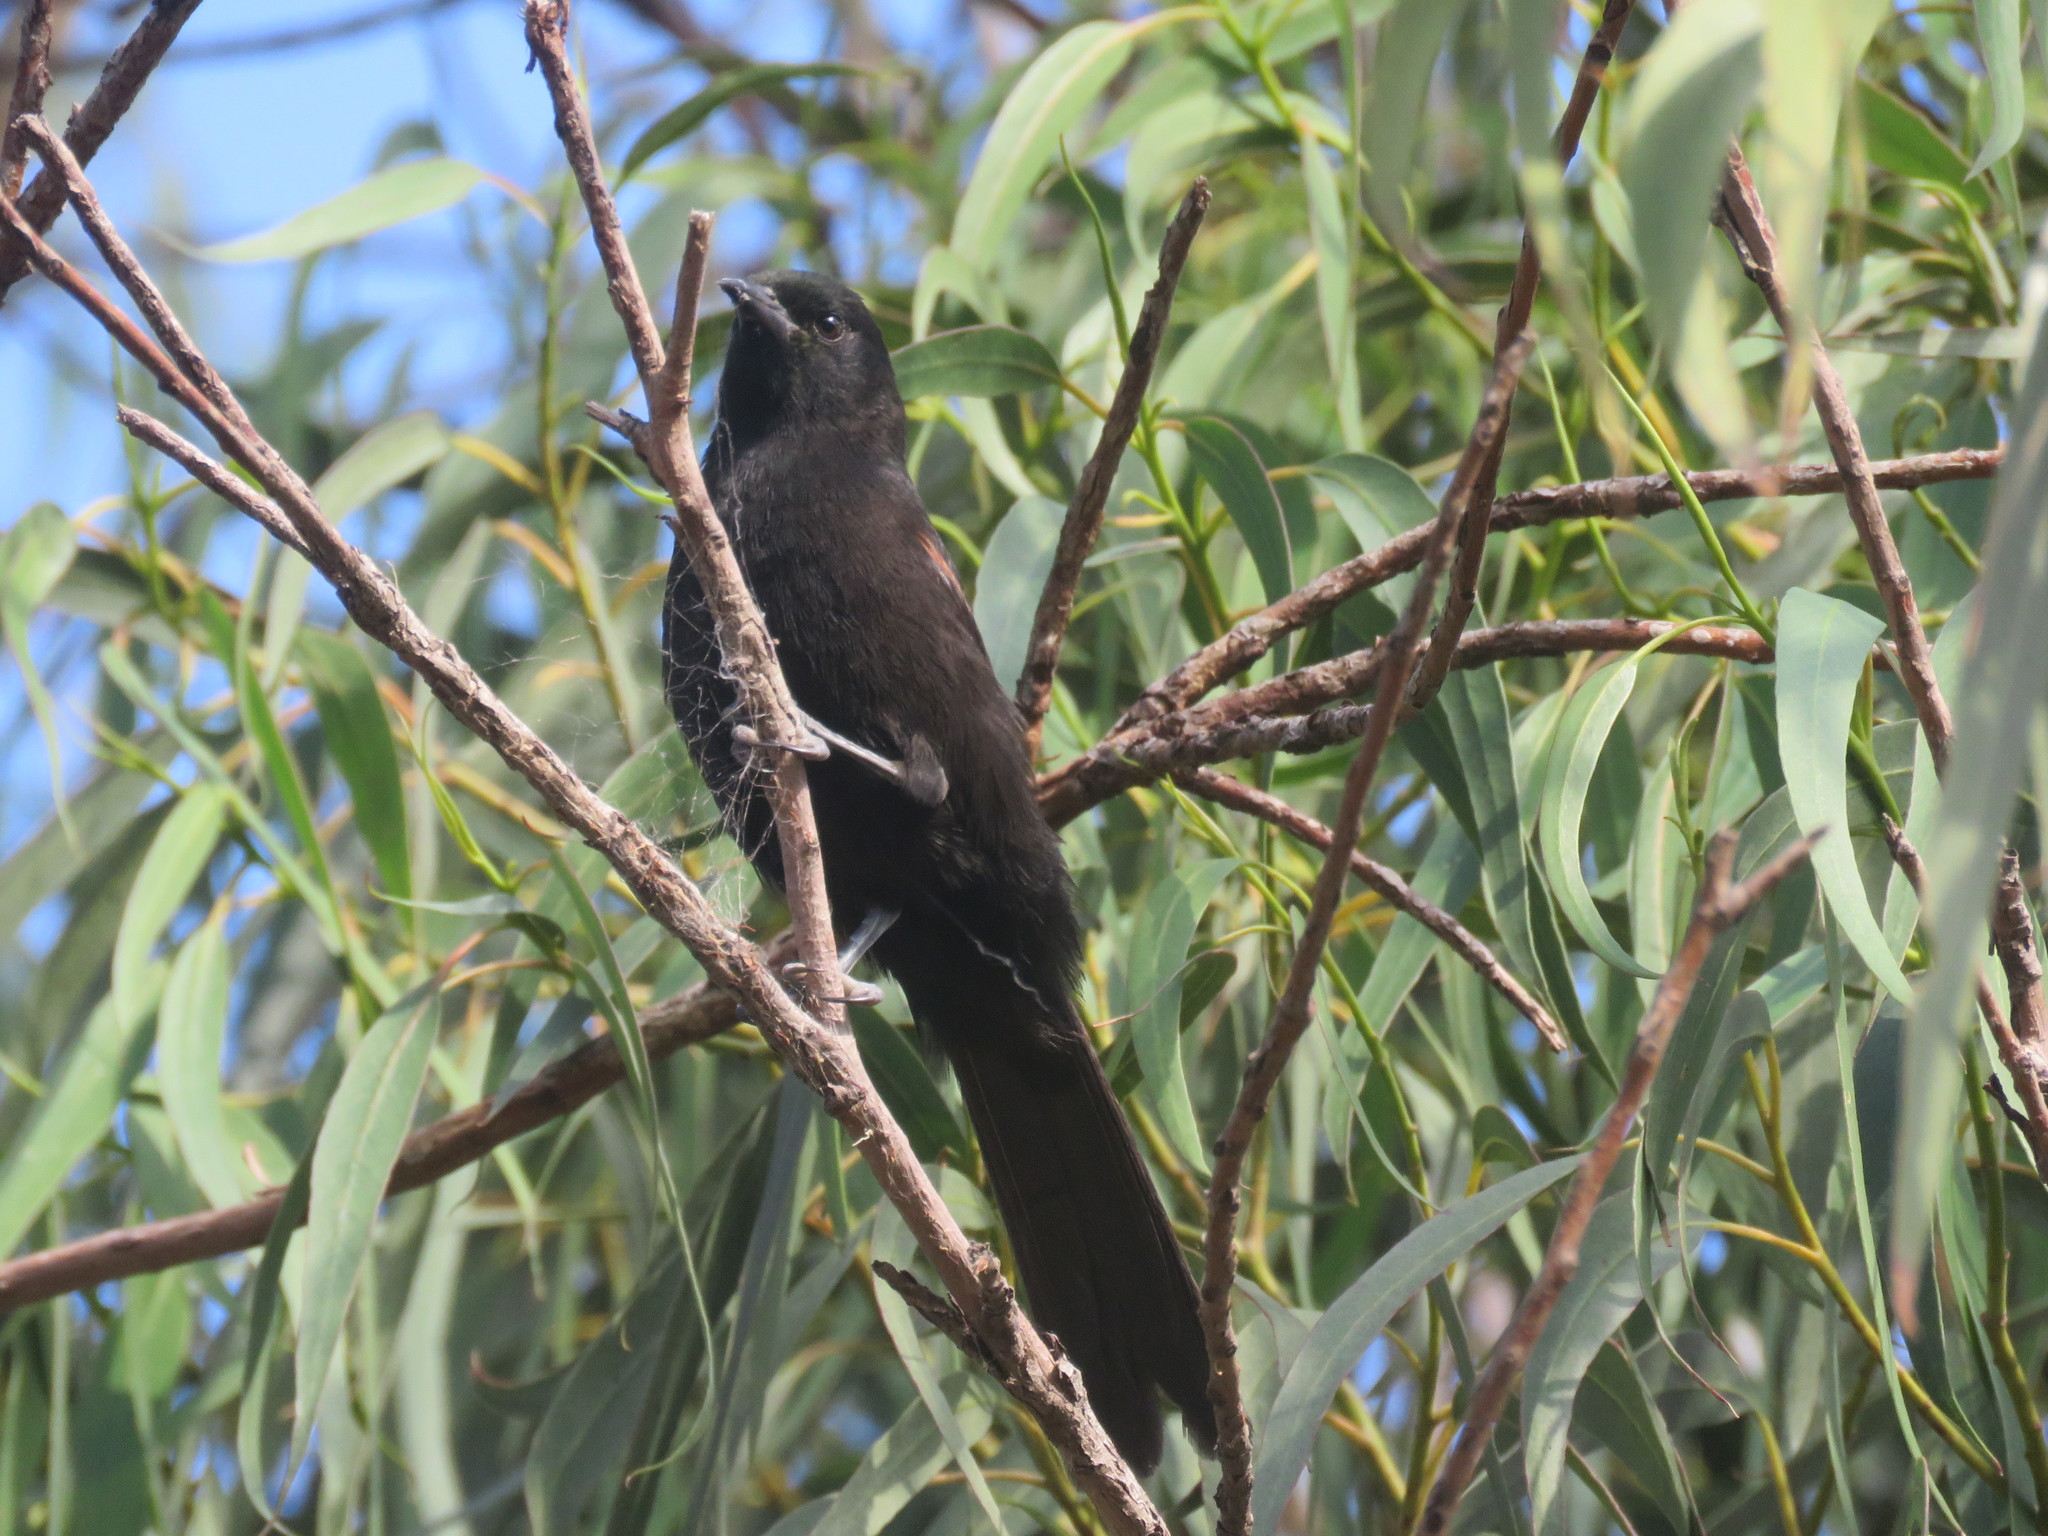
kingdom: Animalia
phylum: Chordata
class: Aves
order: Passeriformes
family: Icteridae
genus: Icterus
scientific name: Icterus cayanensis
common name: Epaulet oriole
